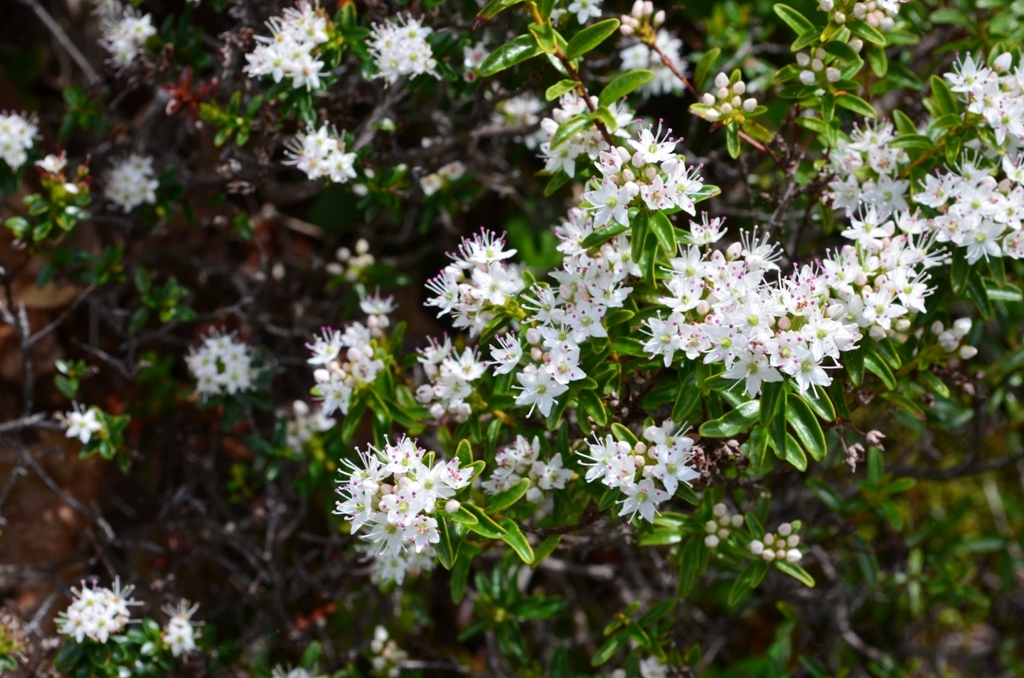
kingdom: Plantae
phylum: Tracheophyta
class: Magnoliopsida
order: Ericales
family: Ericaceae
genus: Kalmia
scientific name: Kalmia buxifolia
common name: Sandmyrtle
